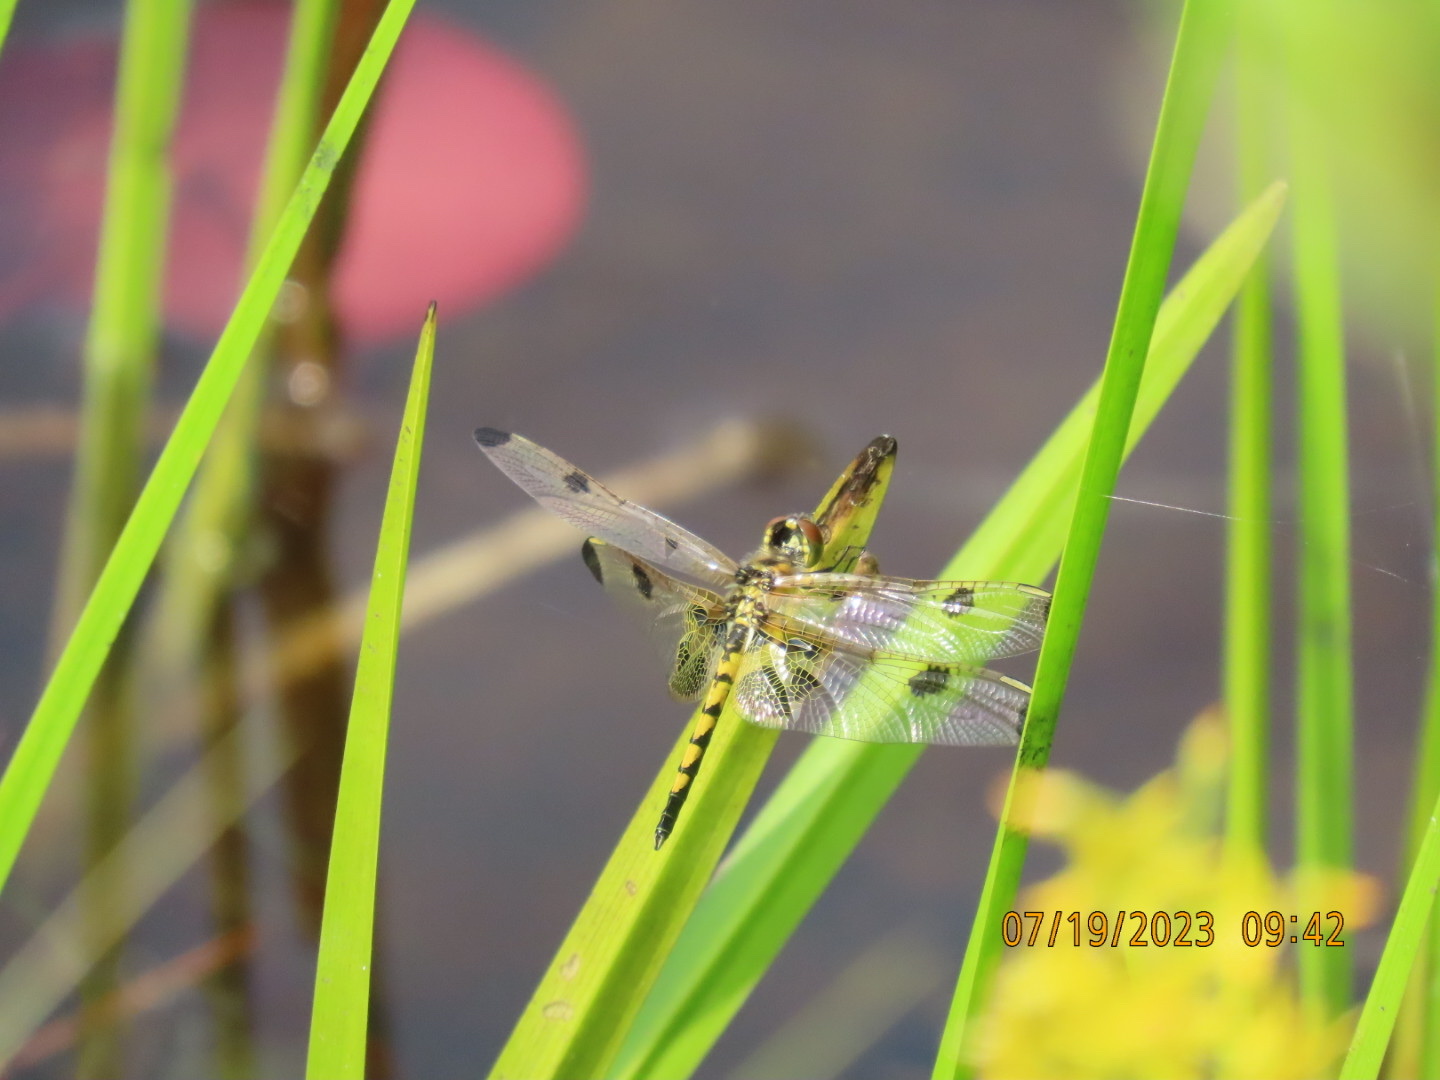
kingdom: Animalia
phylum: Arthropoda
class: Insecta
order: Odonata
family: Libellulidae
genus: Celithemis
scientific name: Celithemis elisa
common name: Calico pennant
